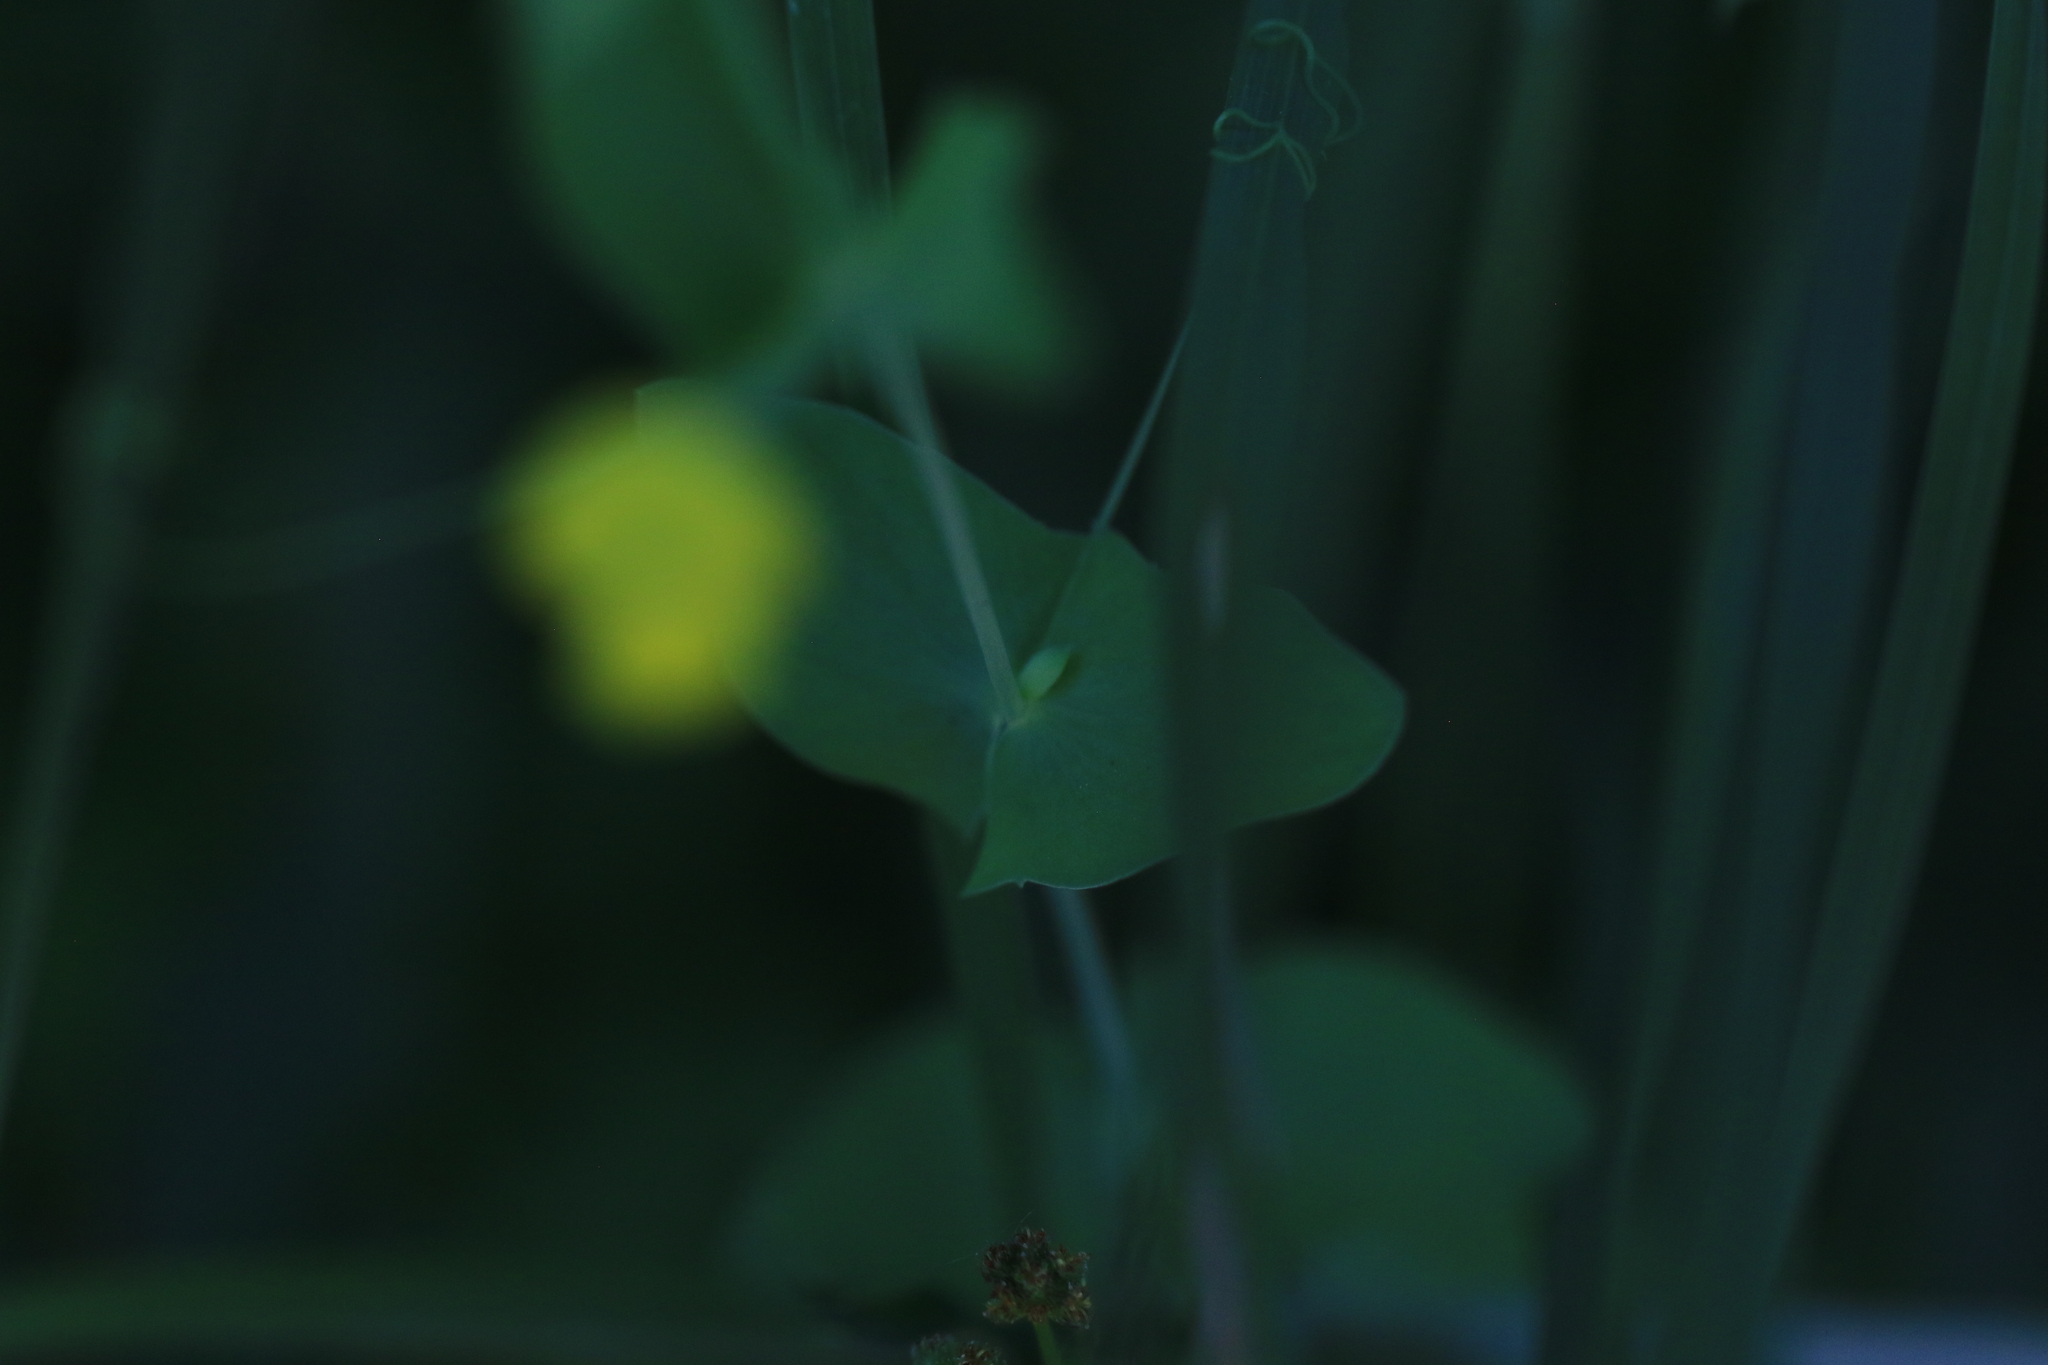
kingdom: Plantae
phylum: Tracheophyta
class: Magnoliopsida
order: Fabales
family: Fabaceae
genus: Lathyrus
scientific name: Lathyrus aphaca
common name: Yellow vetchling
